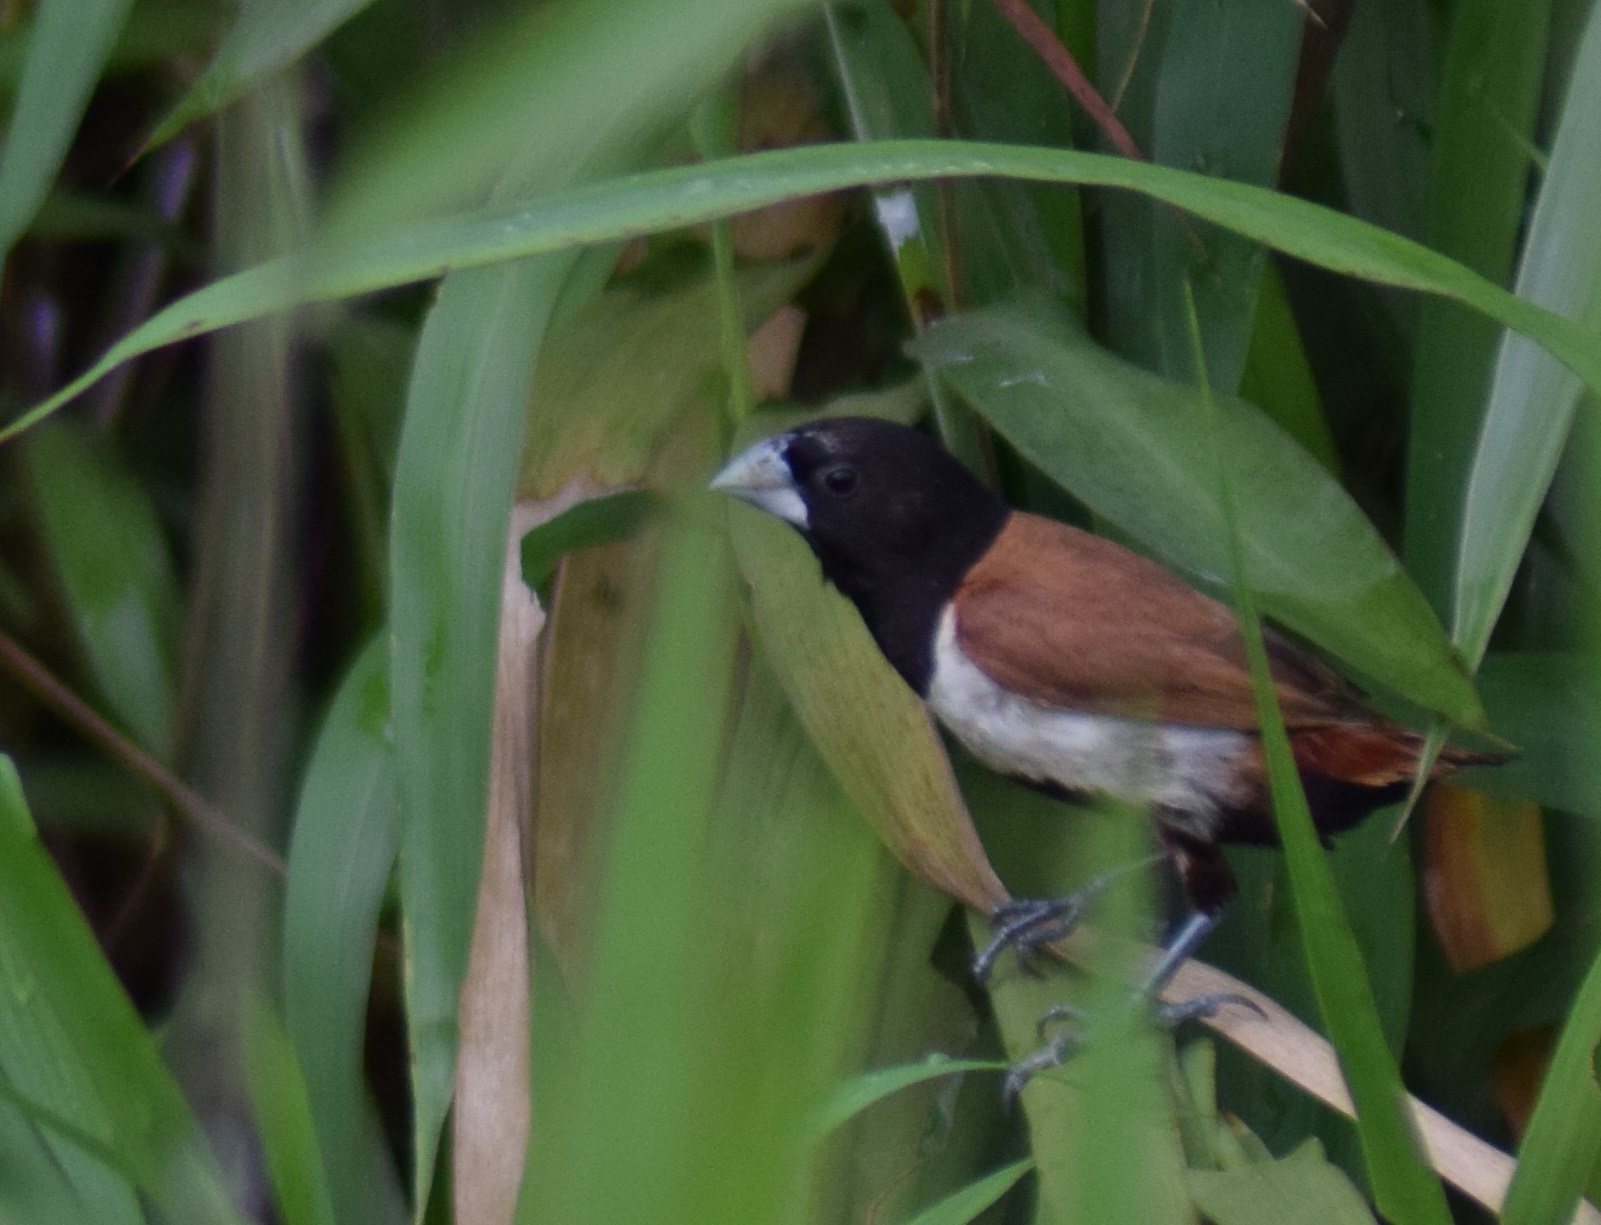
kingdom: Animalia
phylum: Chordata
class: Aves
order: Passeriformes
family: Estrildidae
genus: Lonchura
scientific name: Lonchura malacca
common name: Tricolored munia
